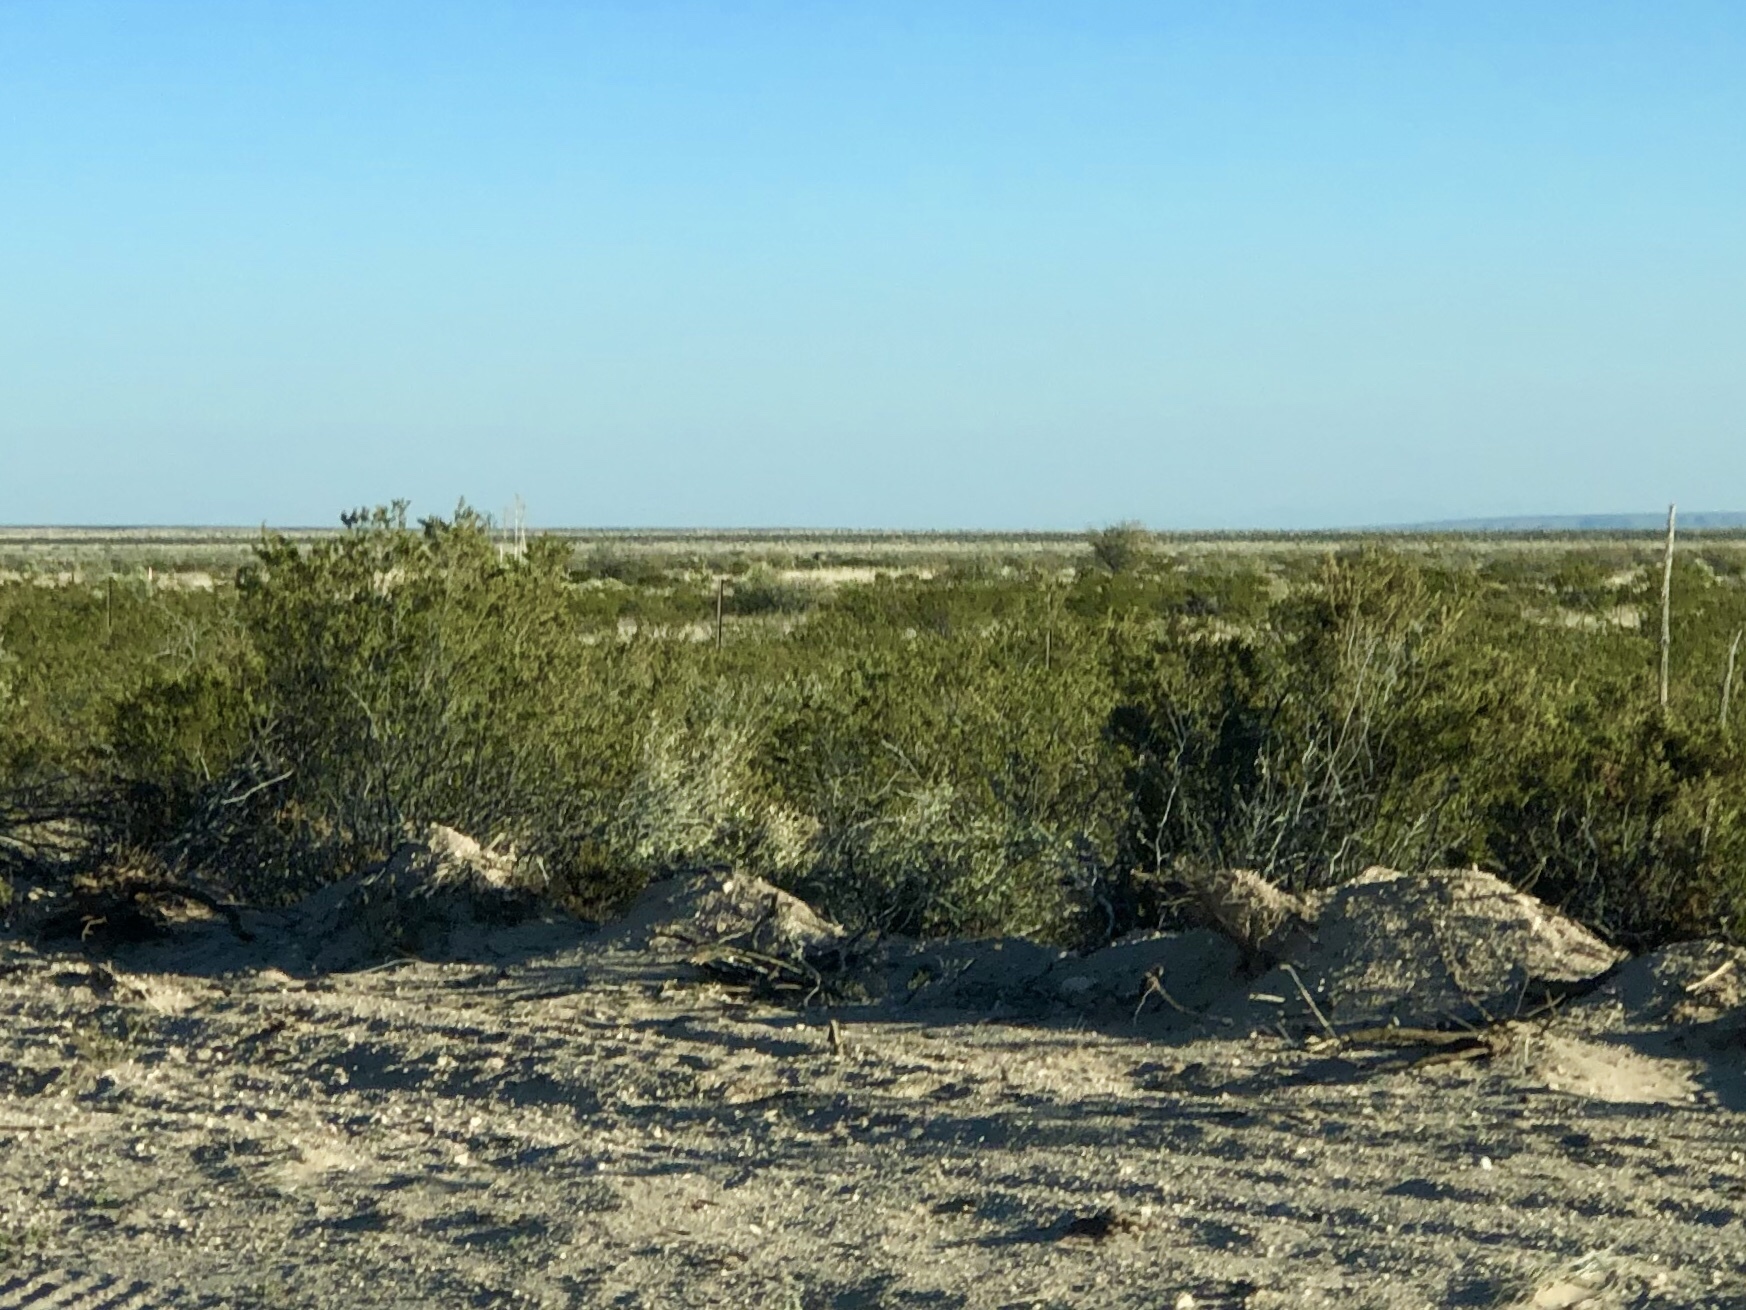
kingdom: Plantae
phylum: Tracheophyta
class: Magnoliopsida
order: Zygophyllales
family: Zygophyllaceae
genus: Larrea
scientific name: Larrea tridentata
